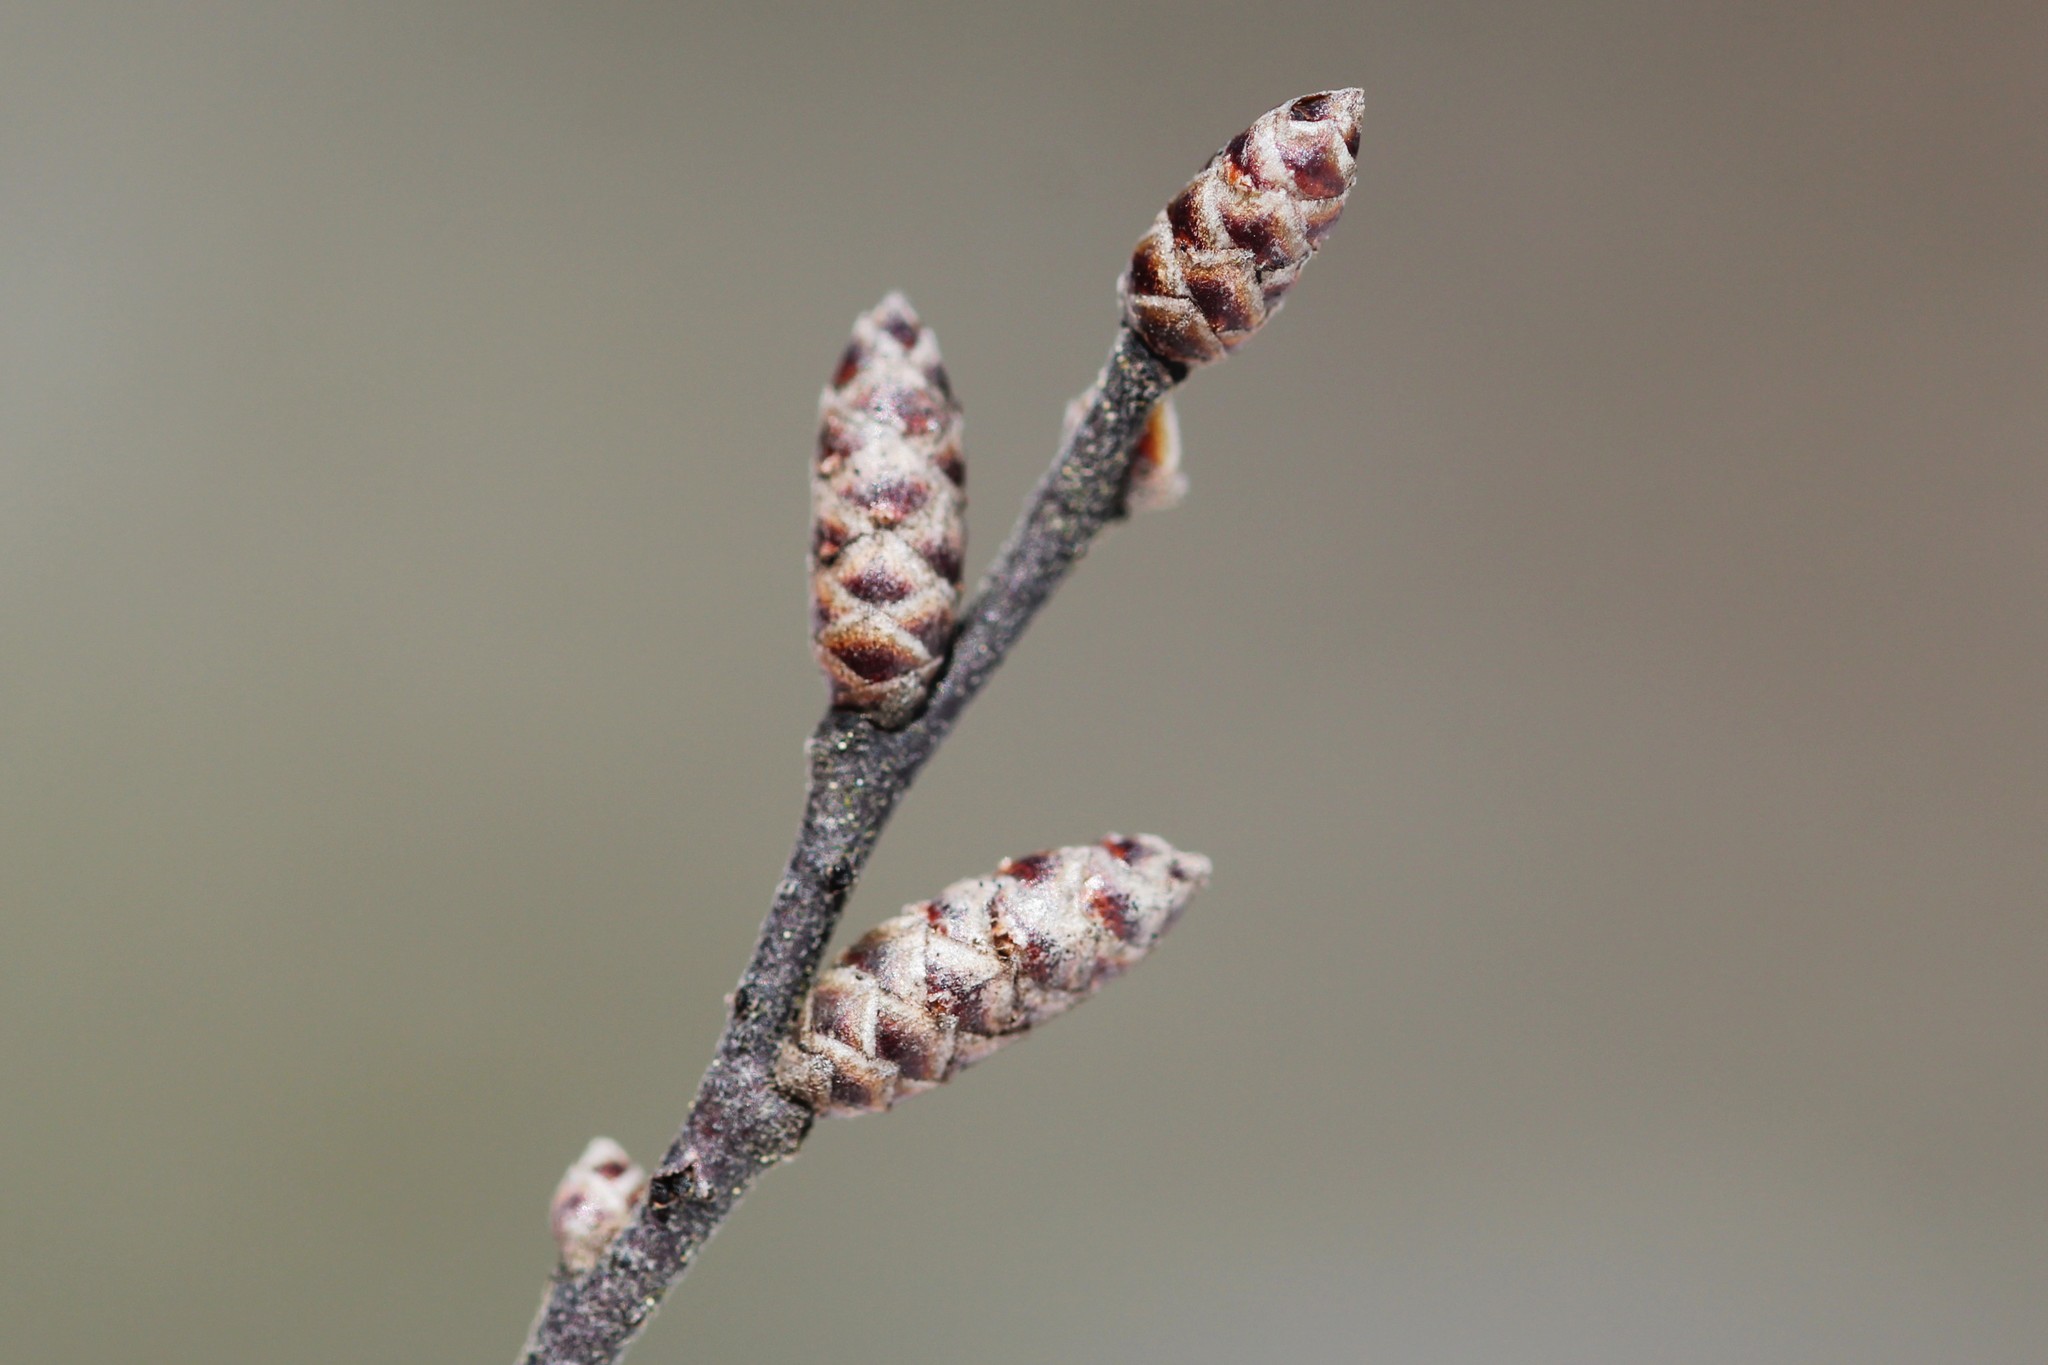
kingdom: Plantae
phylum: Tracheophyta
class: Magnoliopsida
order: Fagales
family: Myricaceae
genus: Myrica
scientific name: Myrica gale
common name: Sweet gale
